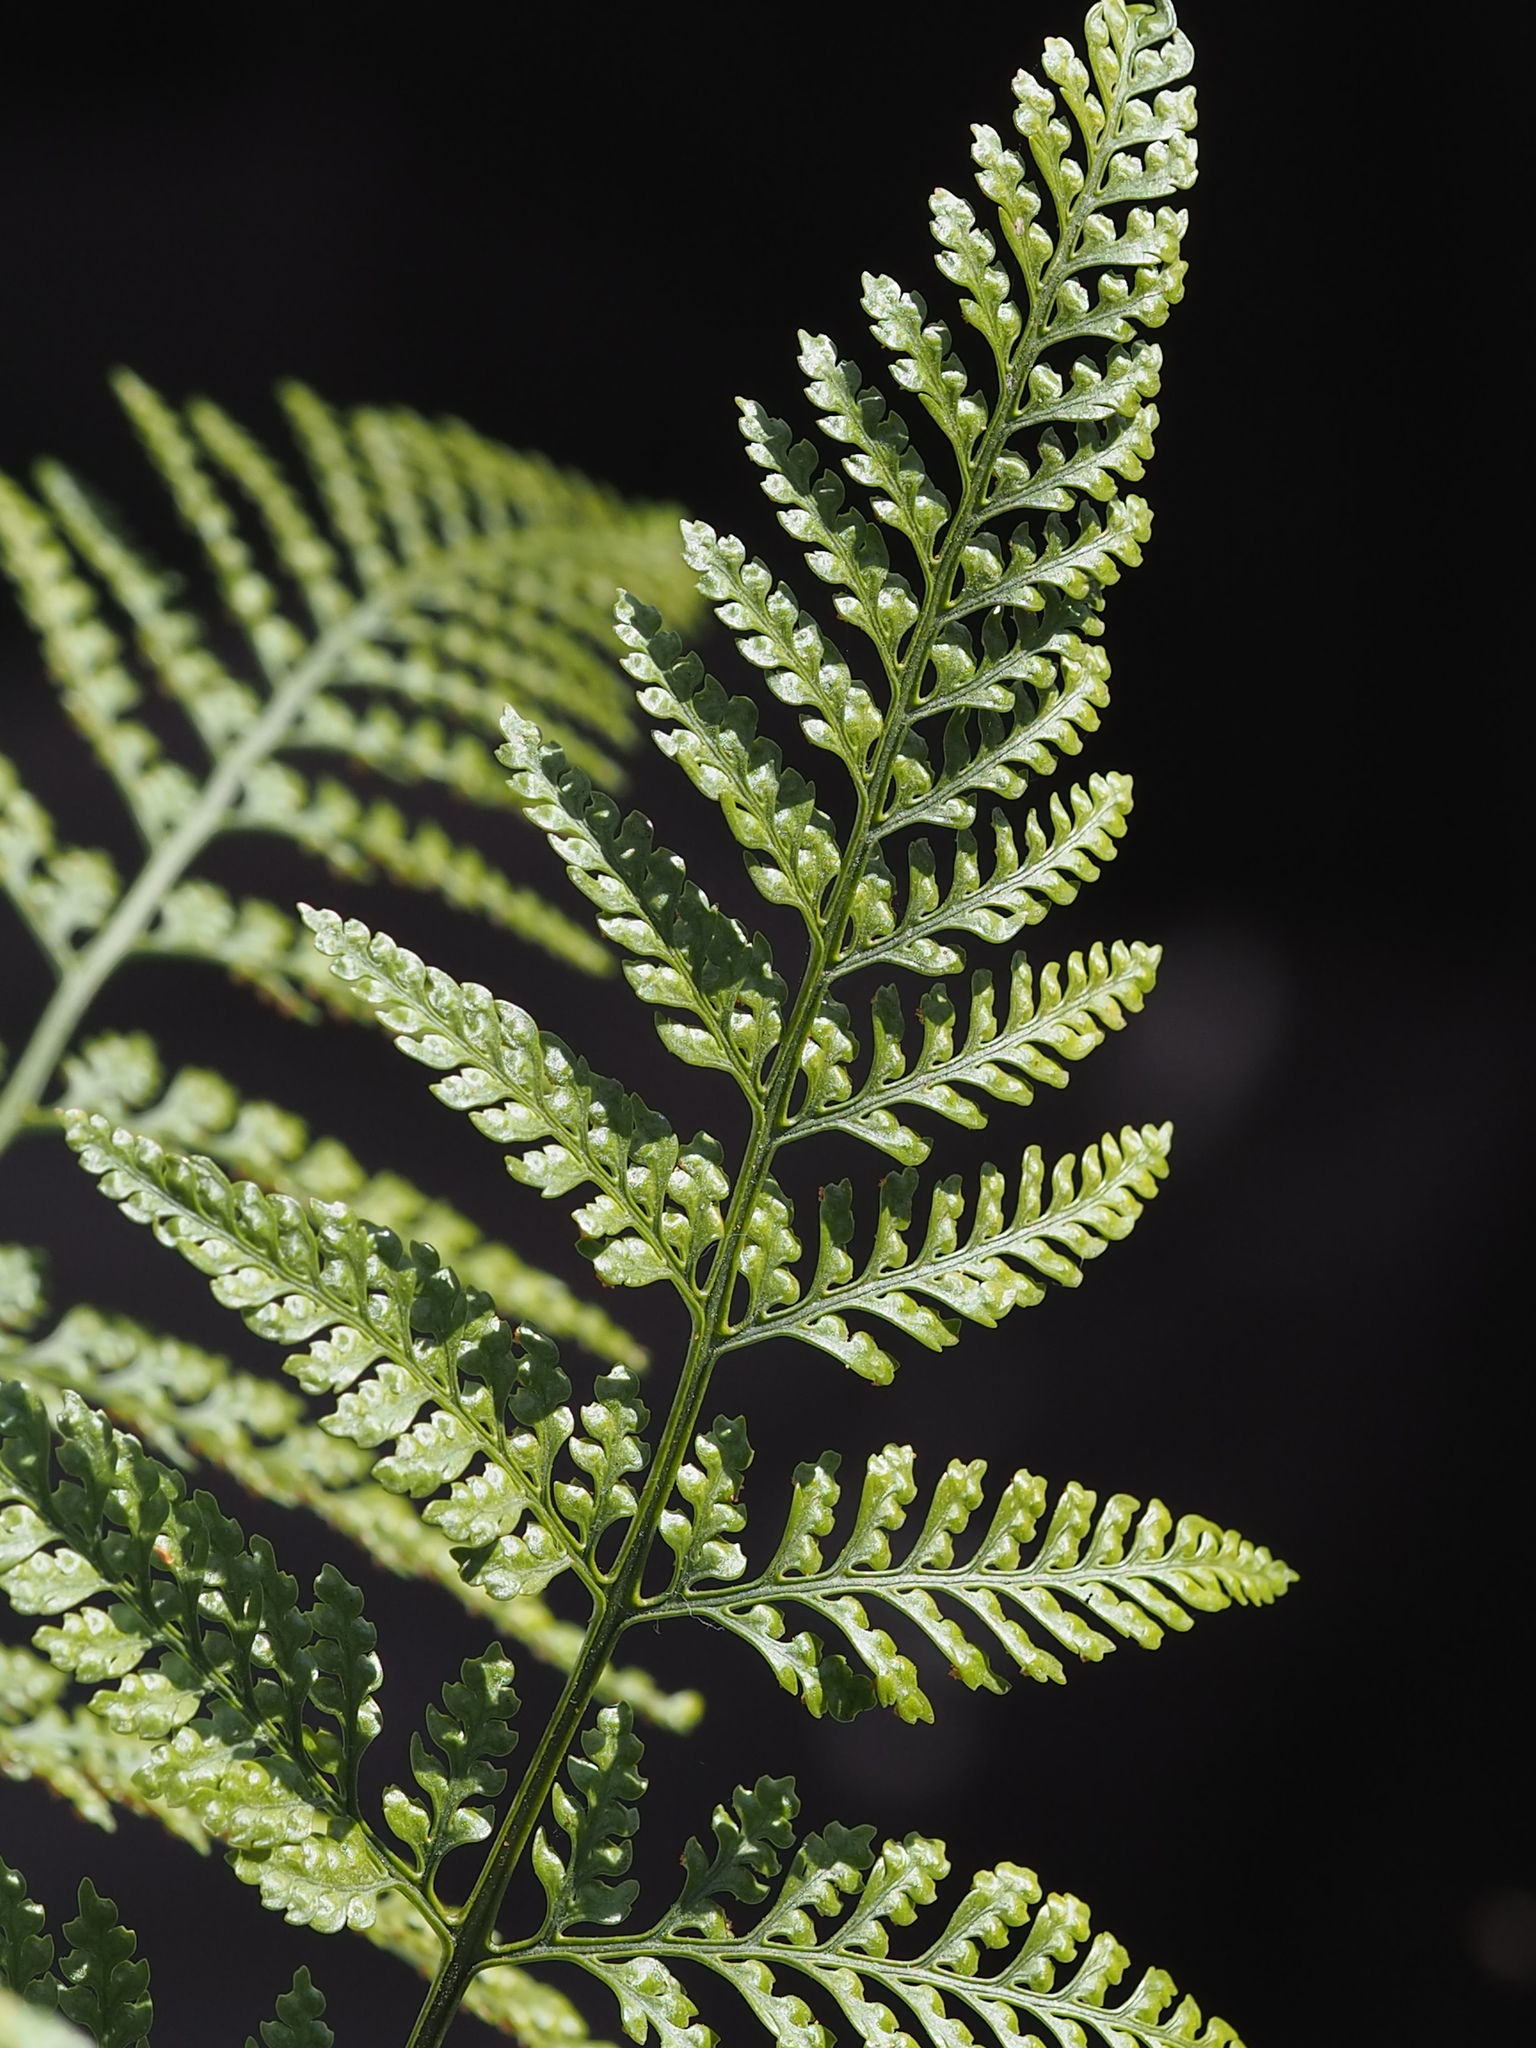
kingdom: Plantae
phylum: Tracheophyta
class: Polypodiopsida
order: Polypodiales
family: Davalliaceae
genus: Davallia
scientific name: Davallia griffithiana
